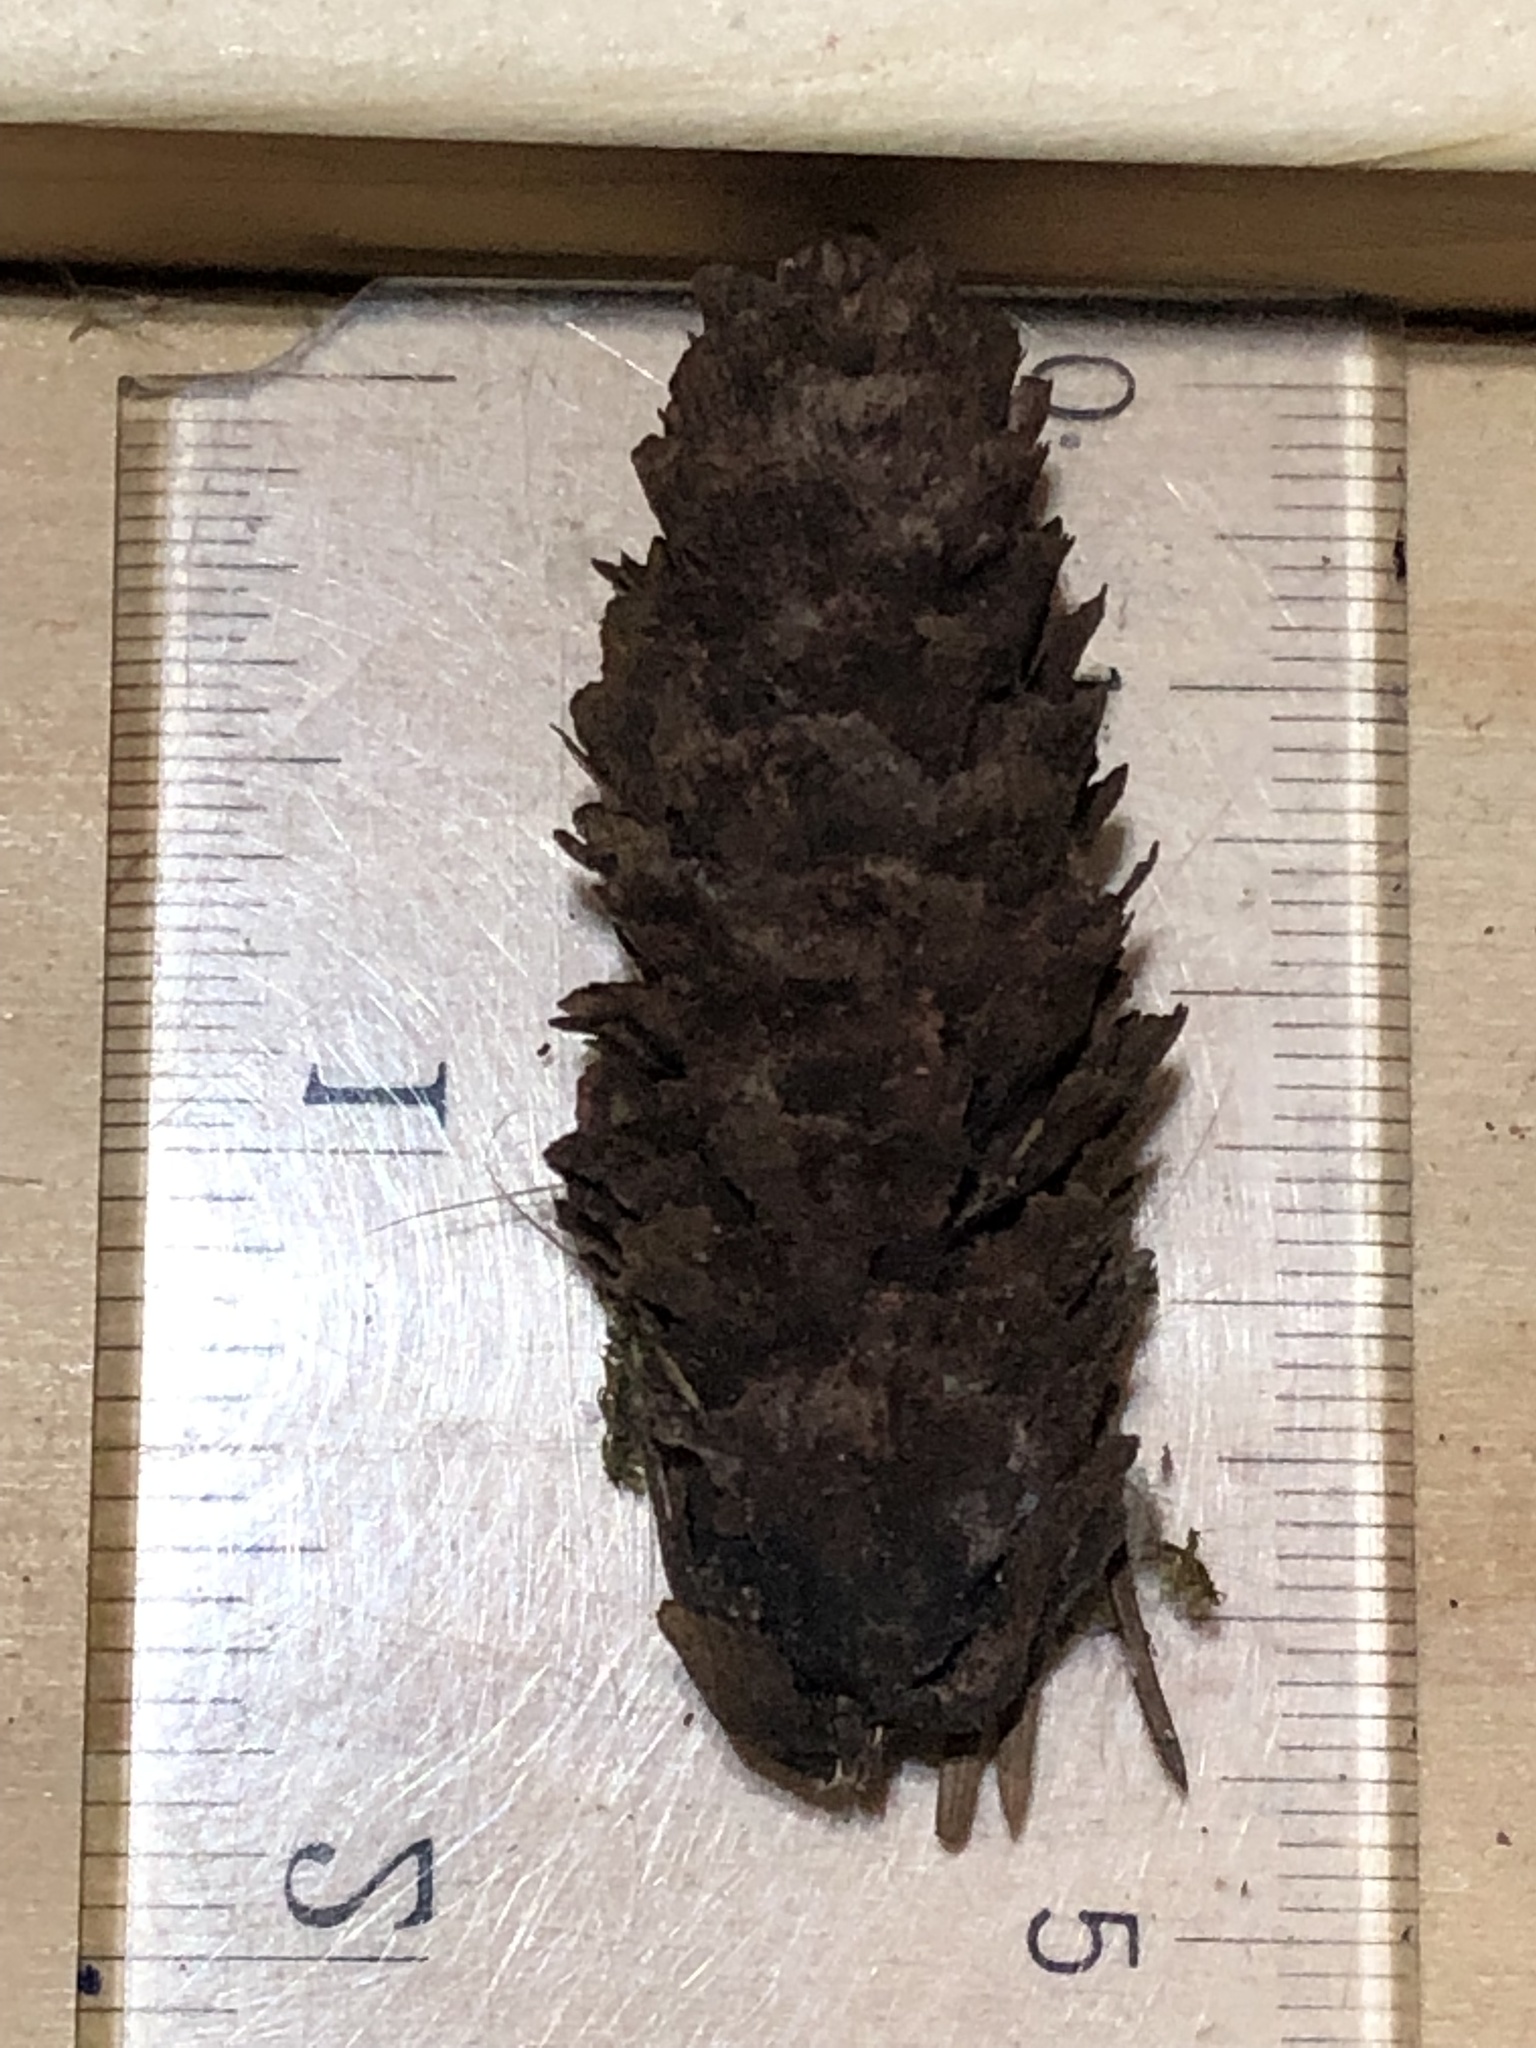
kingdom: Plantae
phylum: Tracheophyta
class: Pinopsida
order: Pinales
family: Pinaceae
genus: Picea
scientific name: Picea glauca
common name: White spruce
